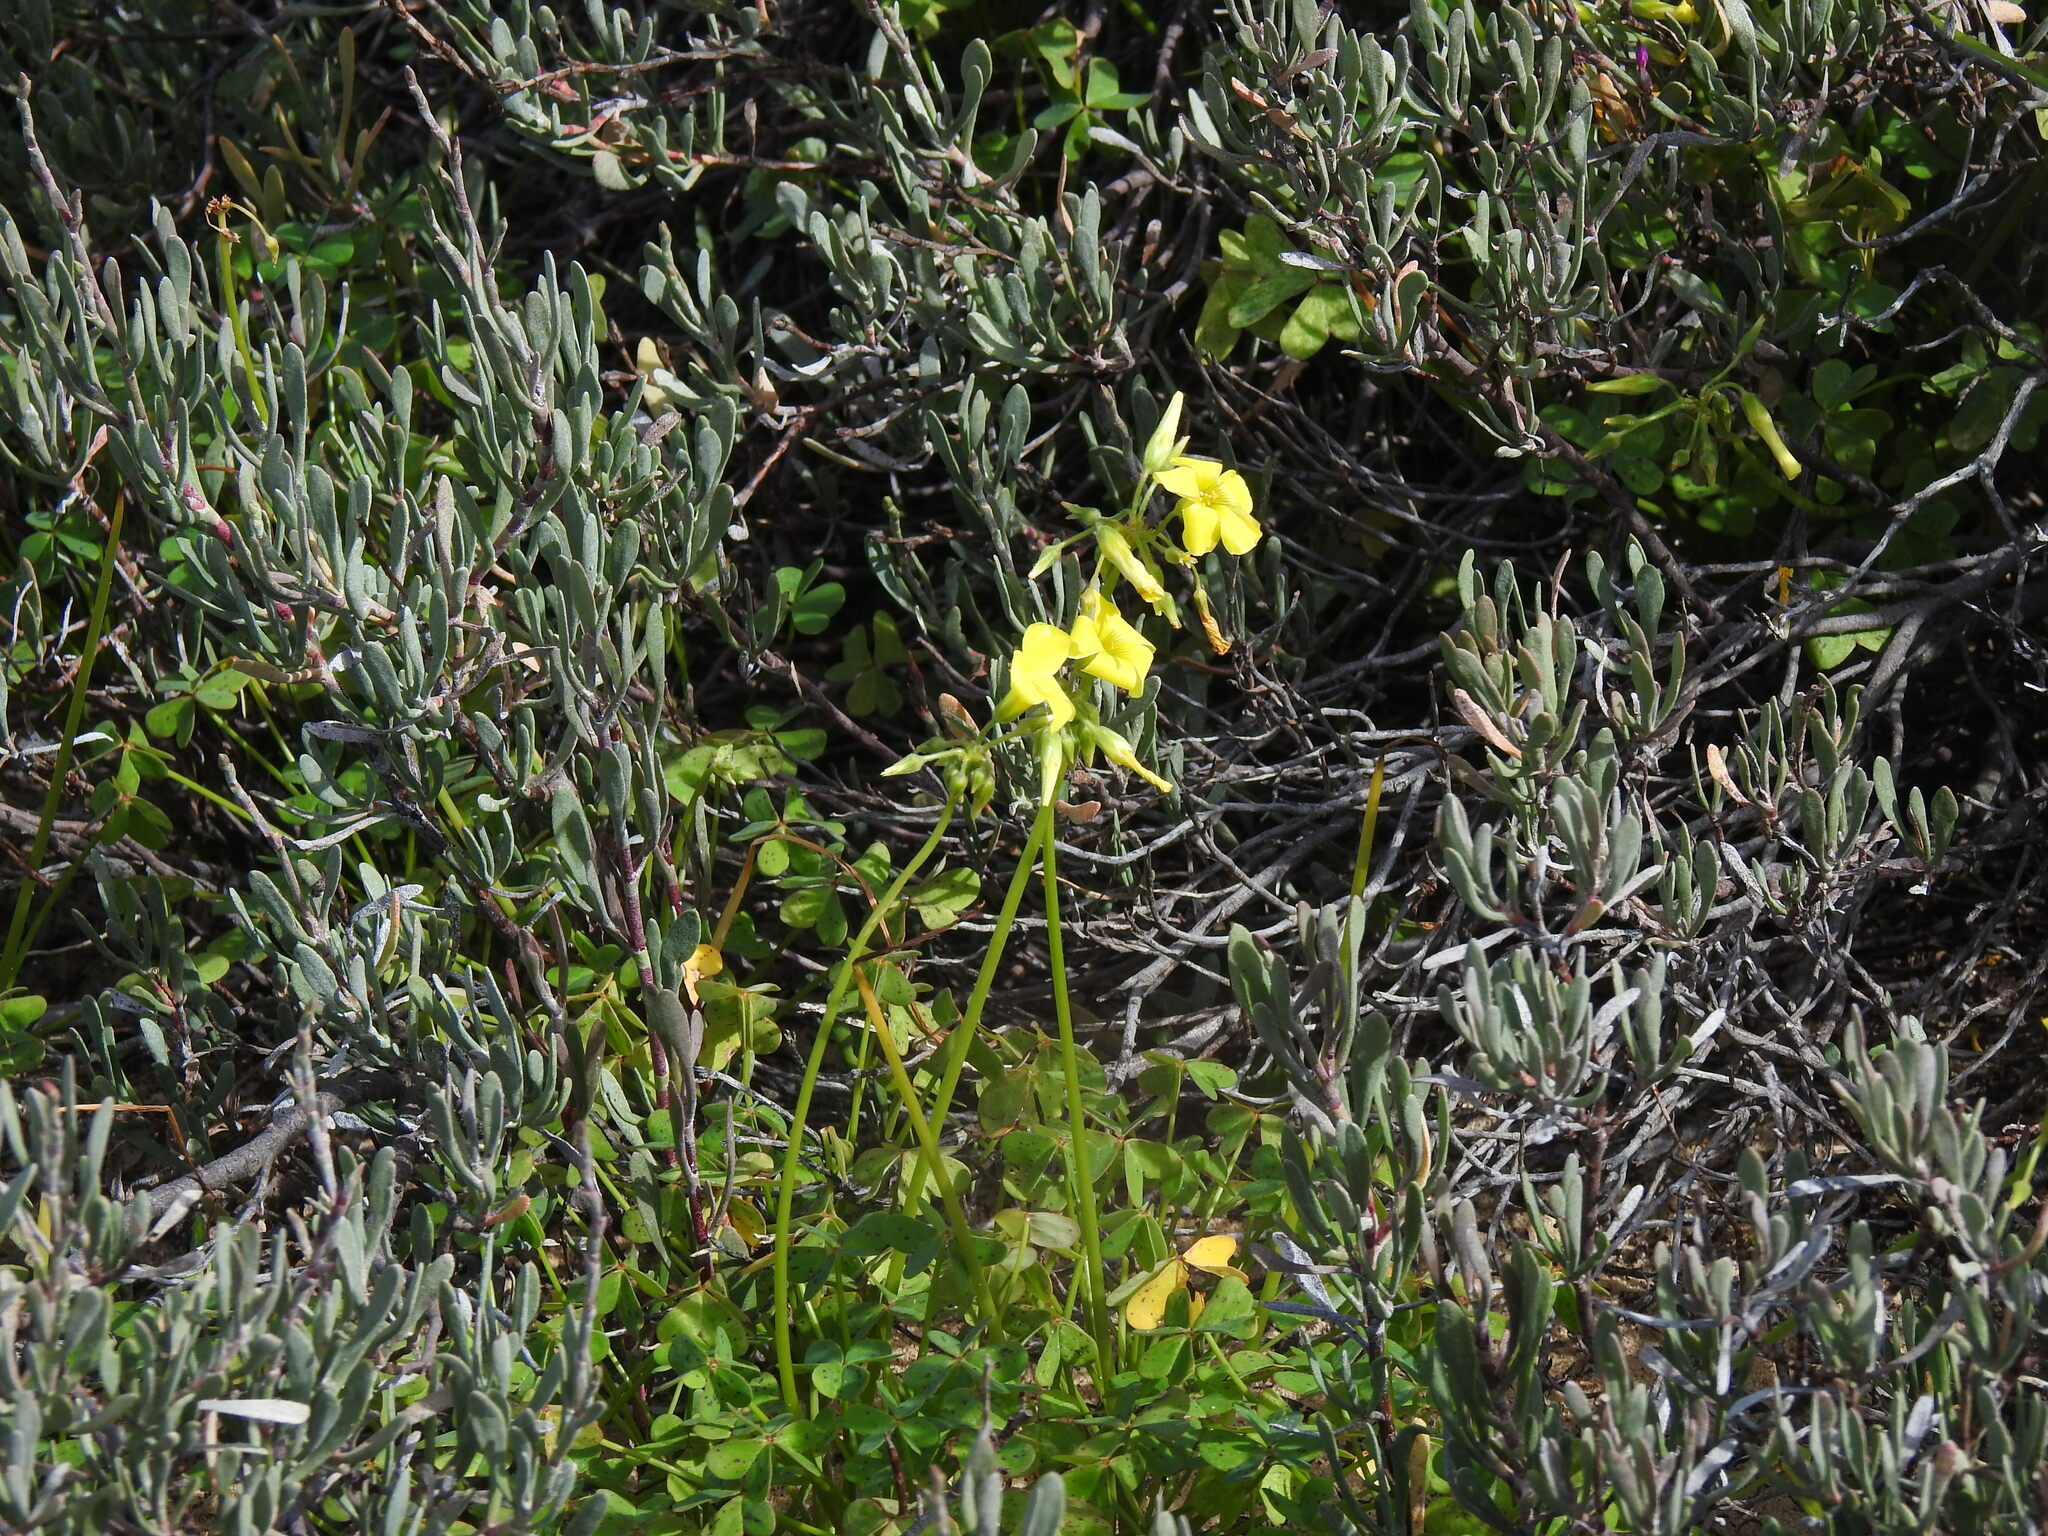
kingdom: Plantae
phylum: Tracheophyta
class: Magnoliopsida
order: Oxalidales
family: Oxalidaceae
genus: Oxalis
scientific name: Oxalis pes-caprae
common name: Bermuda-buttercup
